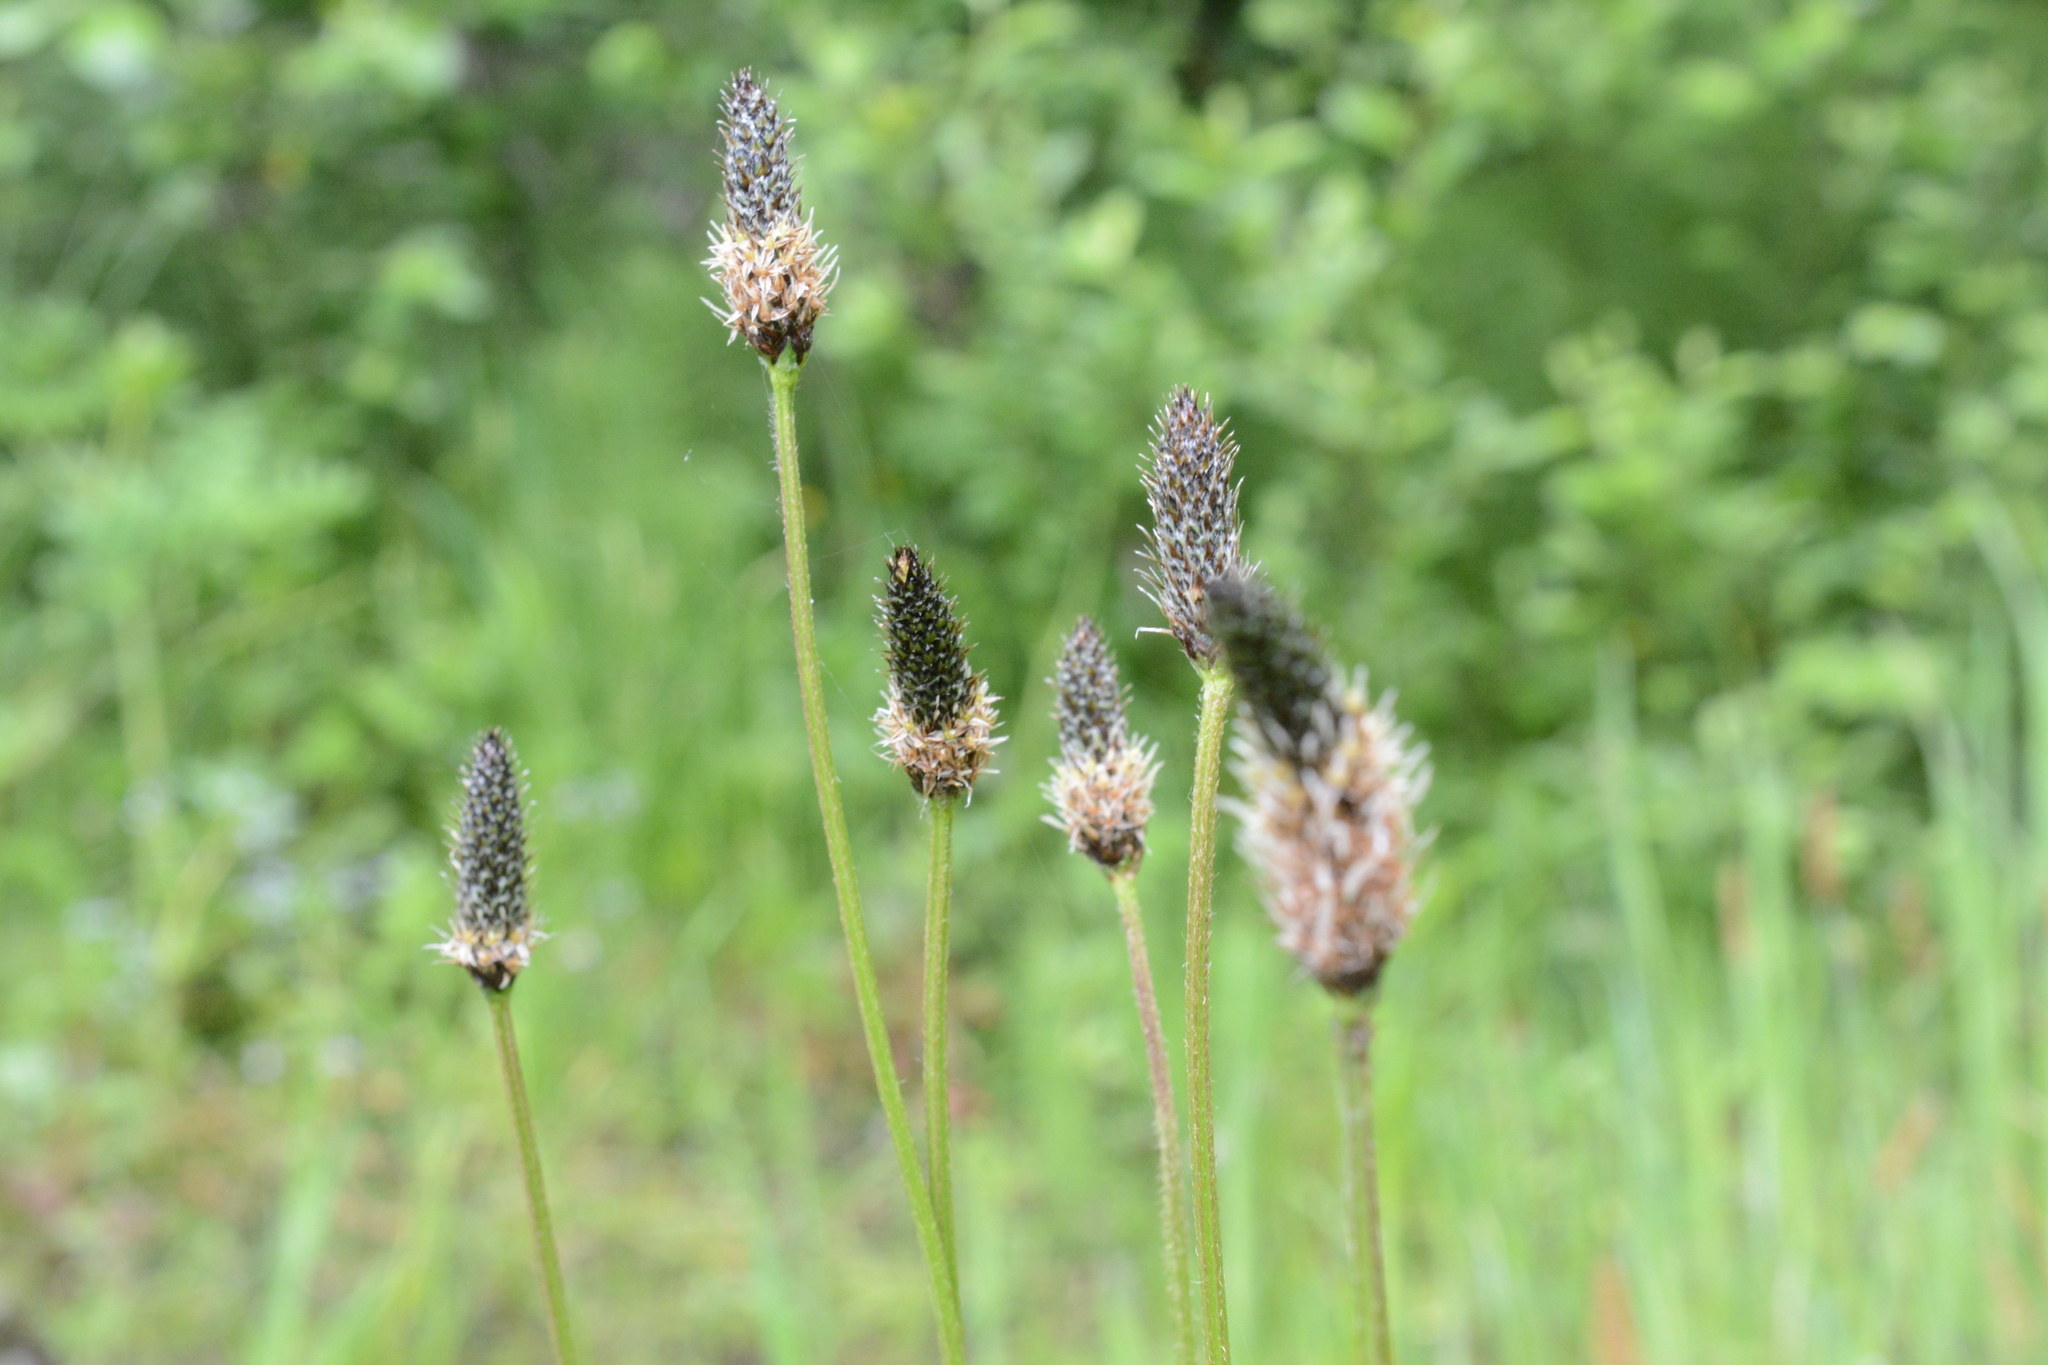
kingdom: Plantae
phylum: Tracheophyta
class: Magnoliopsida
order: Lamiales
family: Plantaginaceae
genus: Plantago
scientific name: Plantago lanceolata
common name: Ribwort plantain
